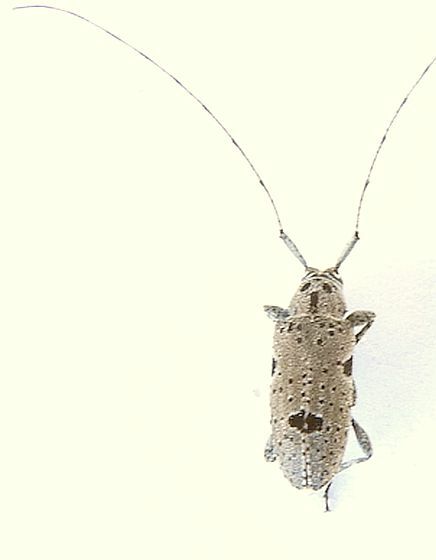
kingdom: Animalia
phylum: Arthropoda
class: Insecta
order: Coleoptera
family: Cerambycidae
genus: Sternidius
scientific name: Sternidius imitans
